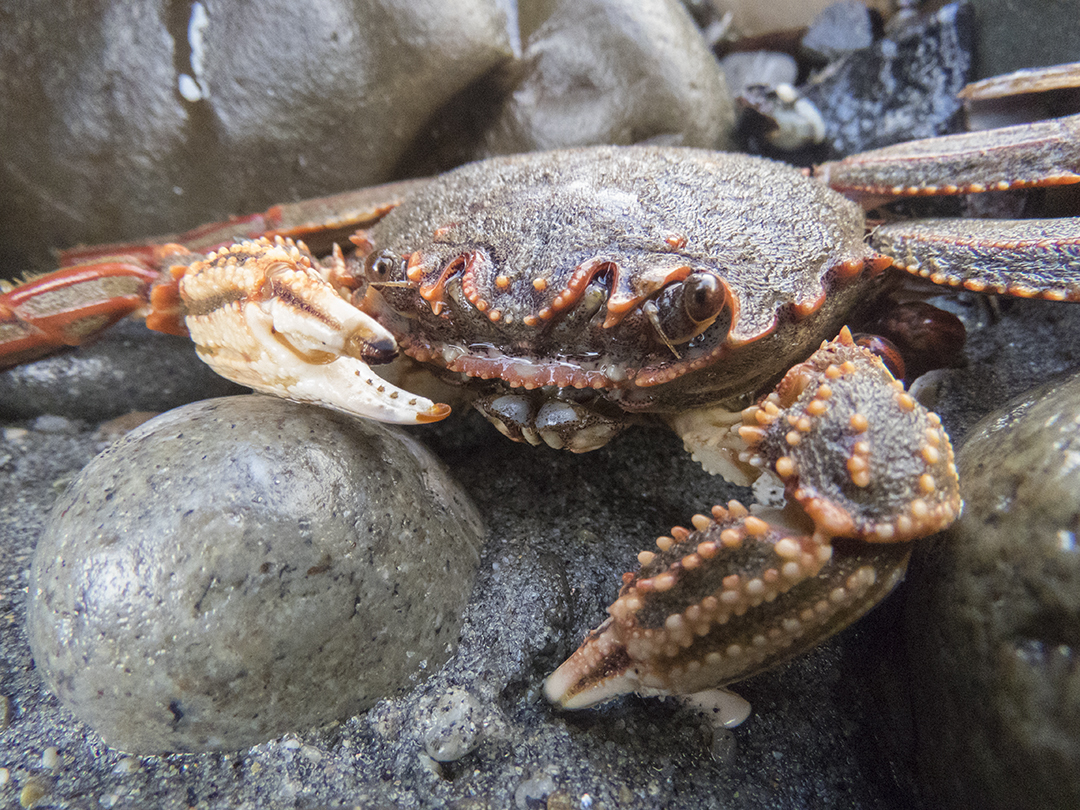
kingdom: Animalia
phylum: Arthropoda
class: Malacostraca
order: Decapoda
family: Plagusiidae
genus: Guinusia
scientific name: Guinusia chabrus
